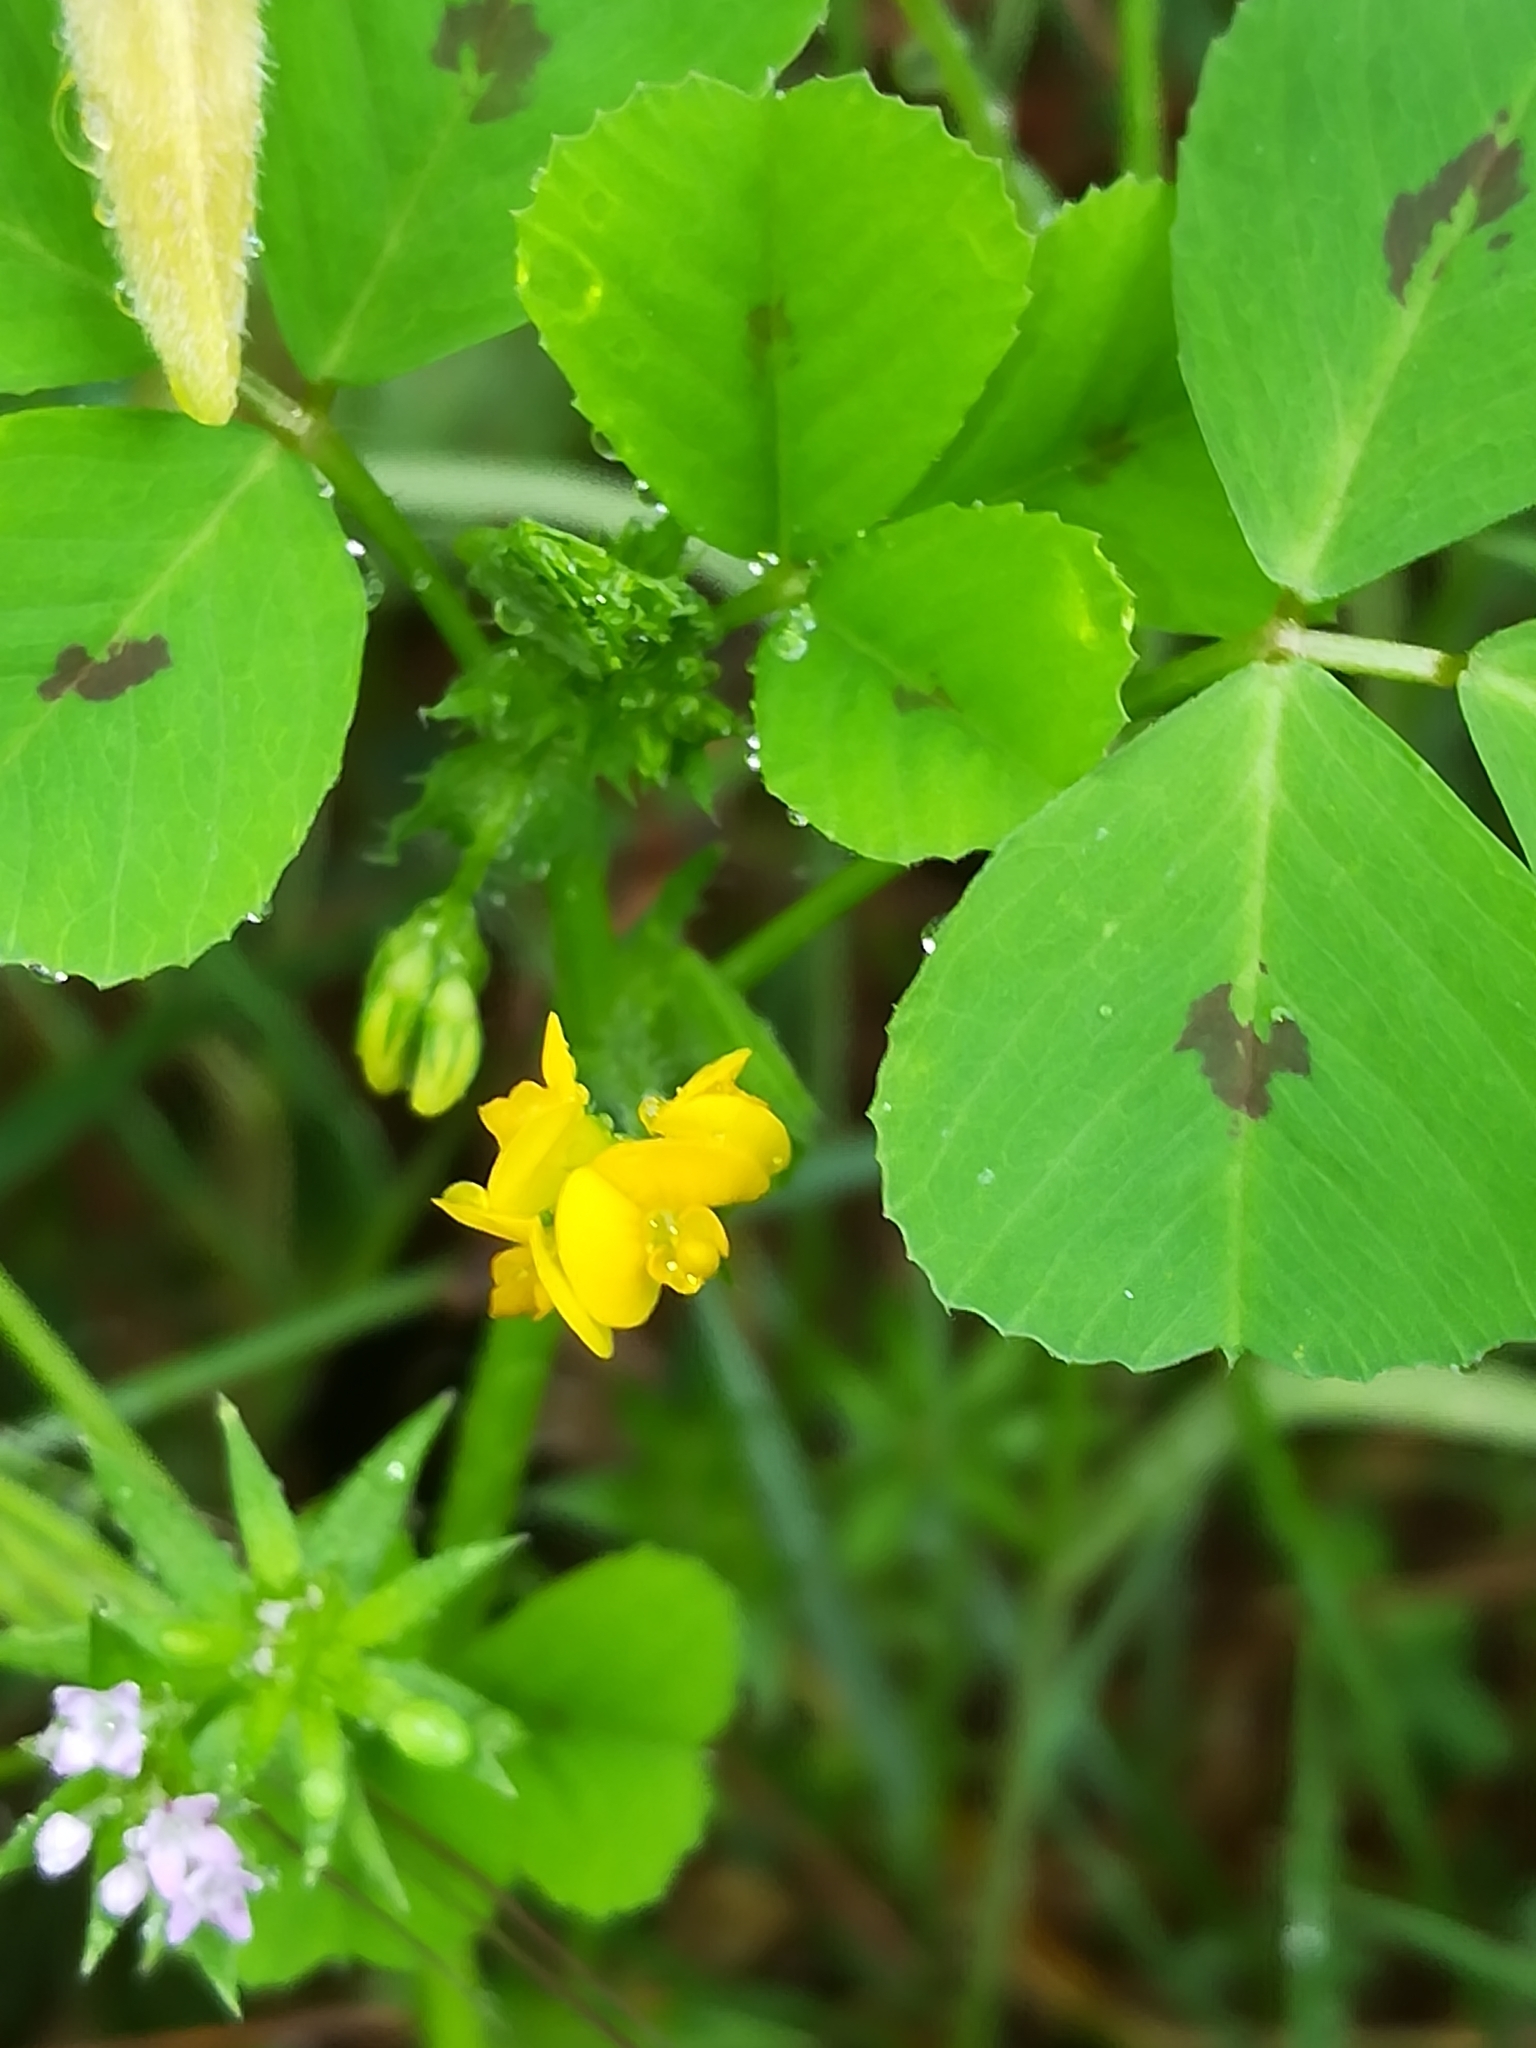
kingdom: Plantae
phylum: Tracheophyta
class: Magnoliopsida
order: Fabales
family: Fabaceae
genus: Medicago
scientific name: Medicago arabica
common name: Spotted medick
